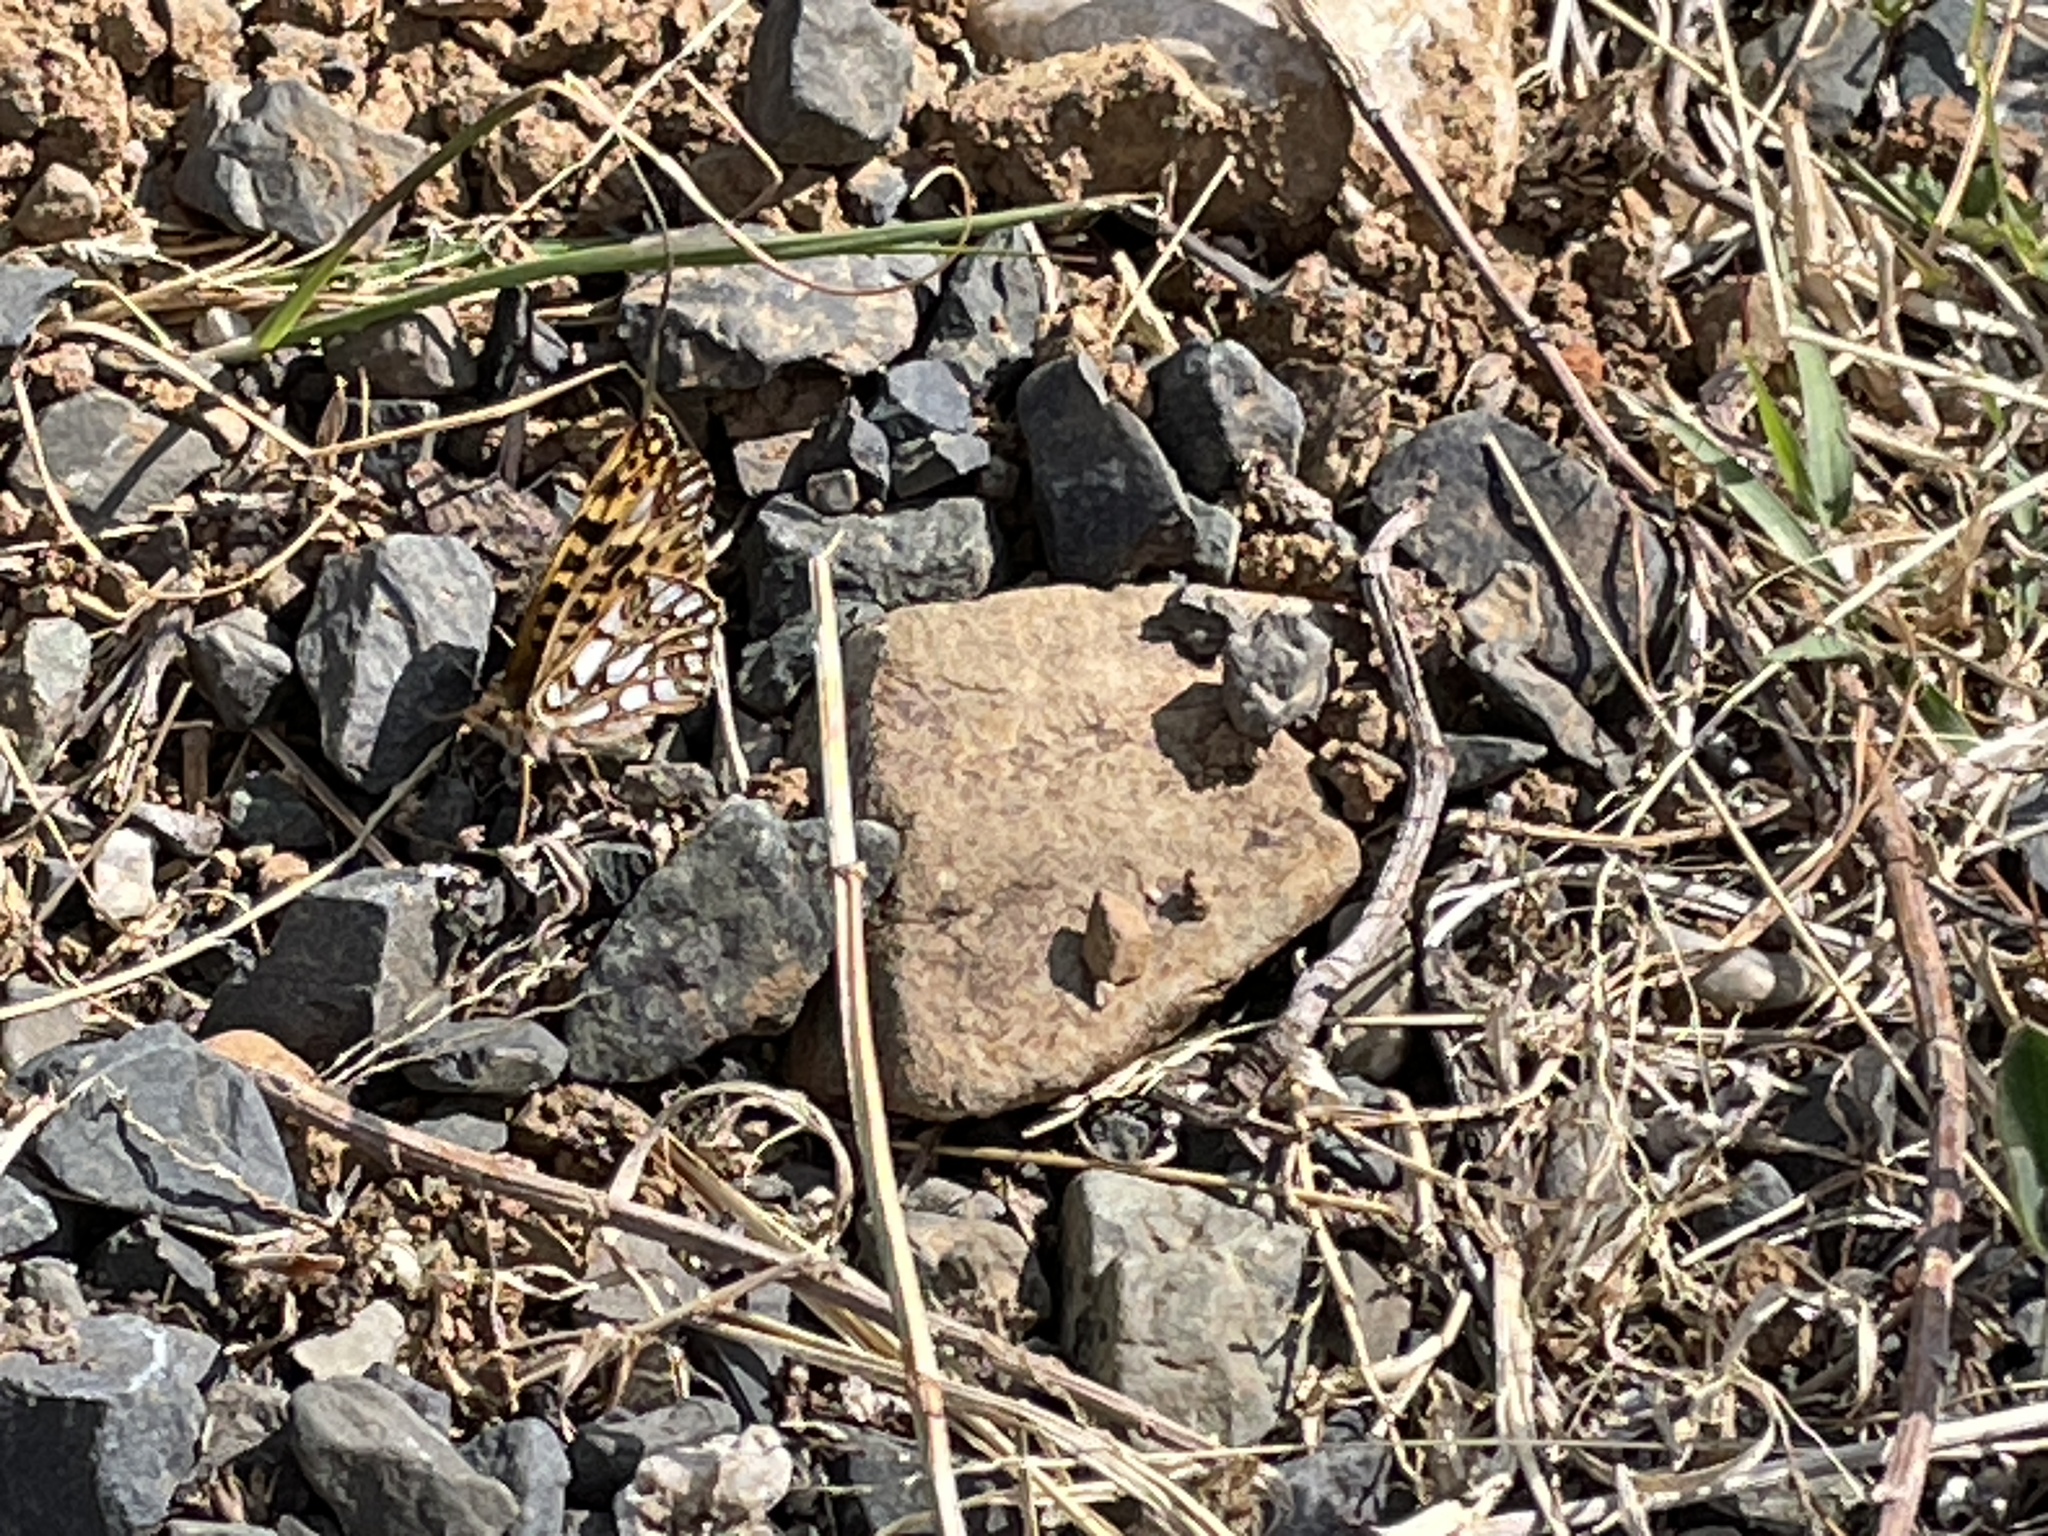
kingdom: Animalia
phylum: Arthropoda
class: Insecta
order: Lepidoptera
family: Nymphalidae
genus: Issoria
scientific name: Issoria
